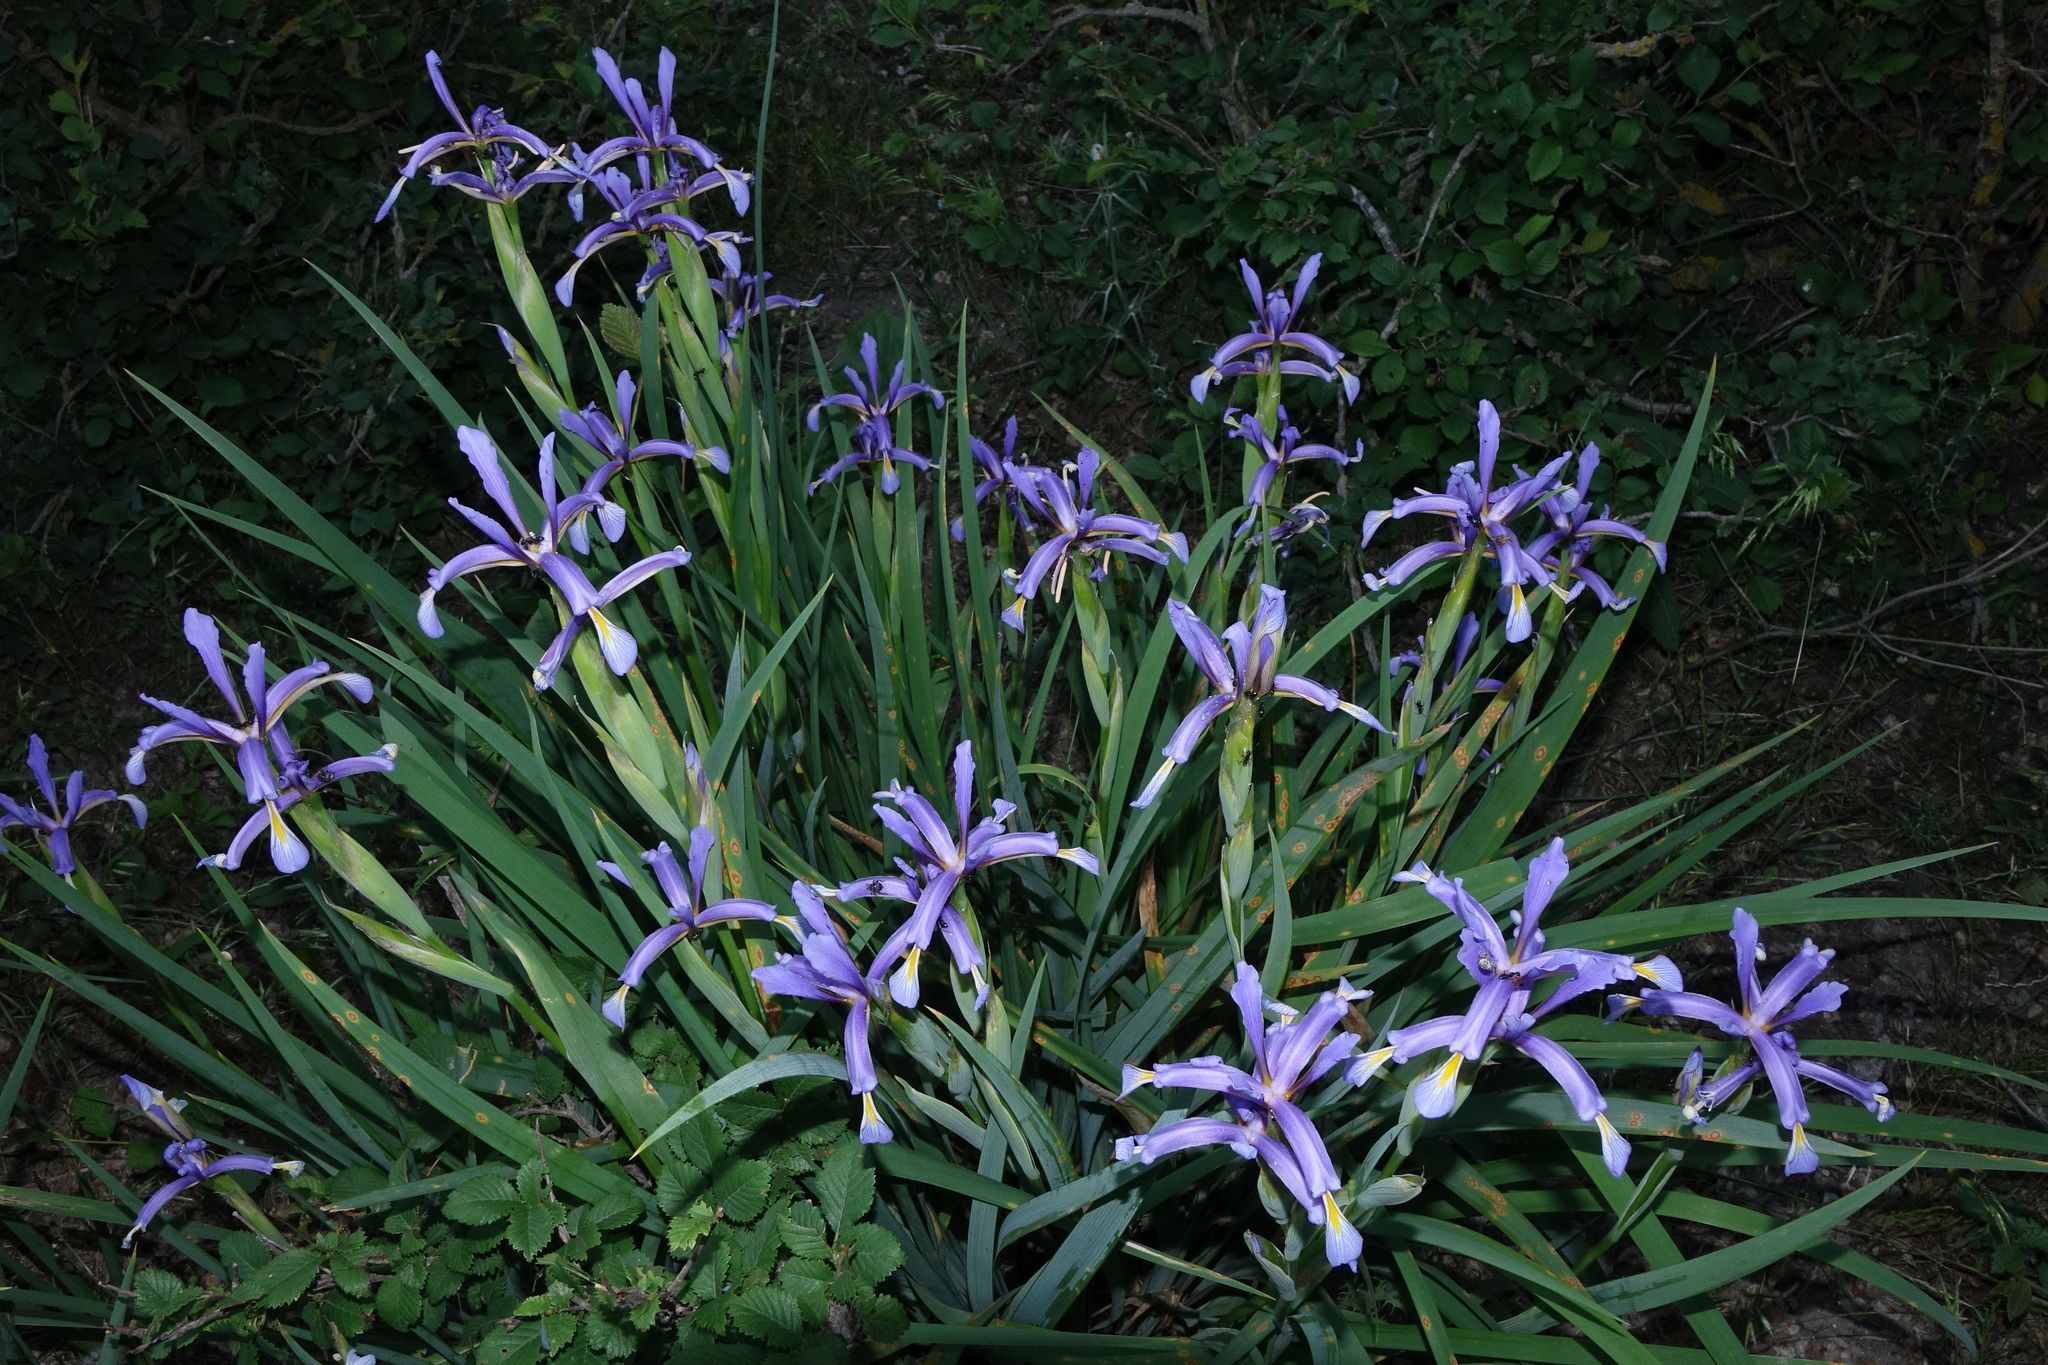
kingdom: Plantae
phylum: Tracheophyta
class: Liliopsida
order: Asparagales
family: Iridaceae
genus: Iris
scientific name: Iris pseudonotha
